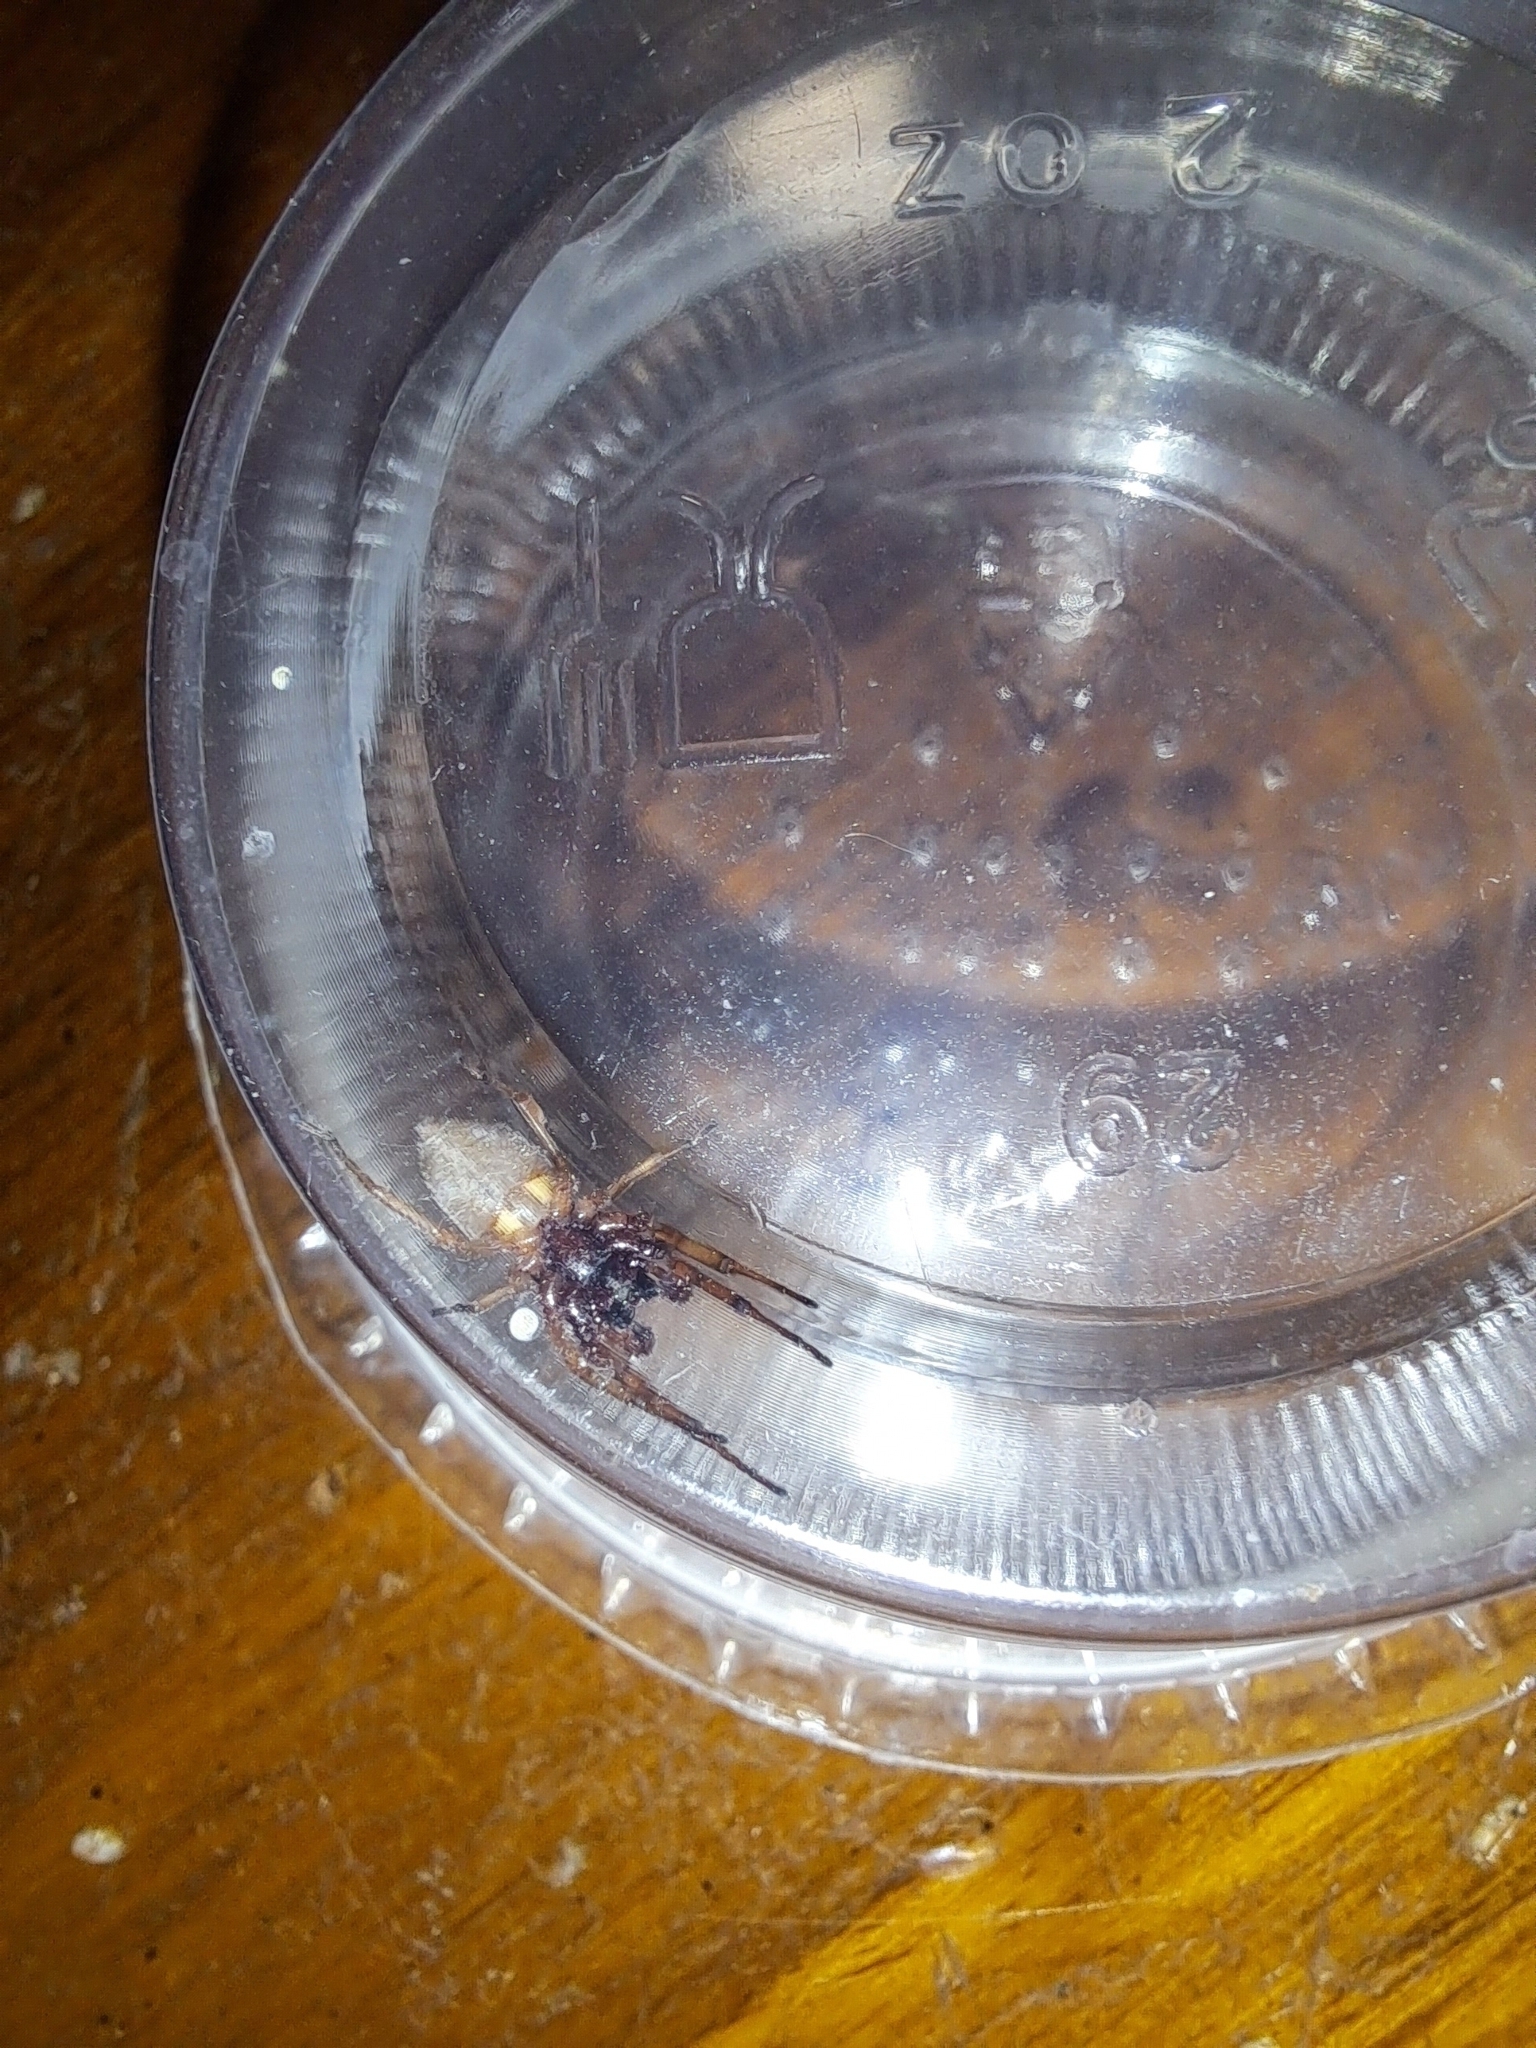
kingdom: Animalia
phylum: Arthropoda
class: Arachnida
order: Araneae
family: Trachelidae
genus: Trachelas
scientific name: Trachelas tranquillus
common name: Broad-faced sac spider
